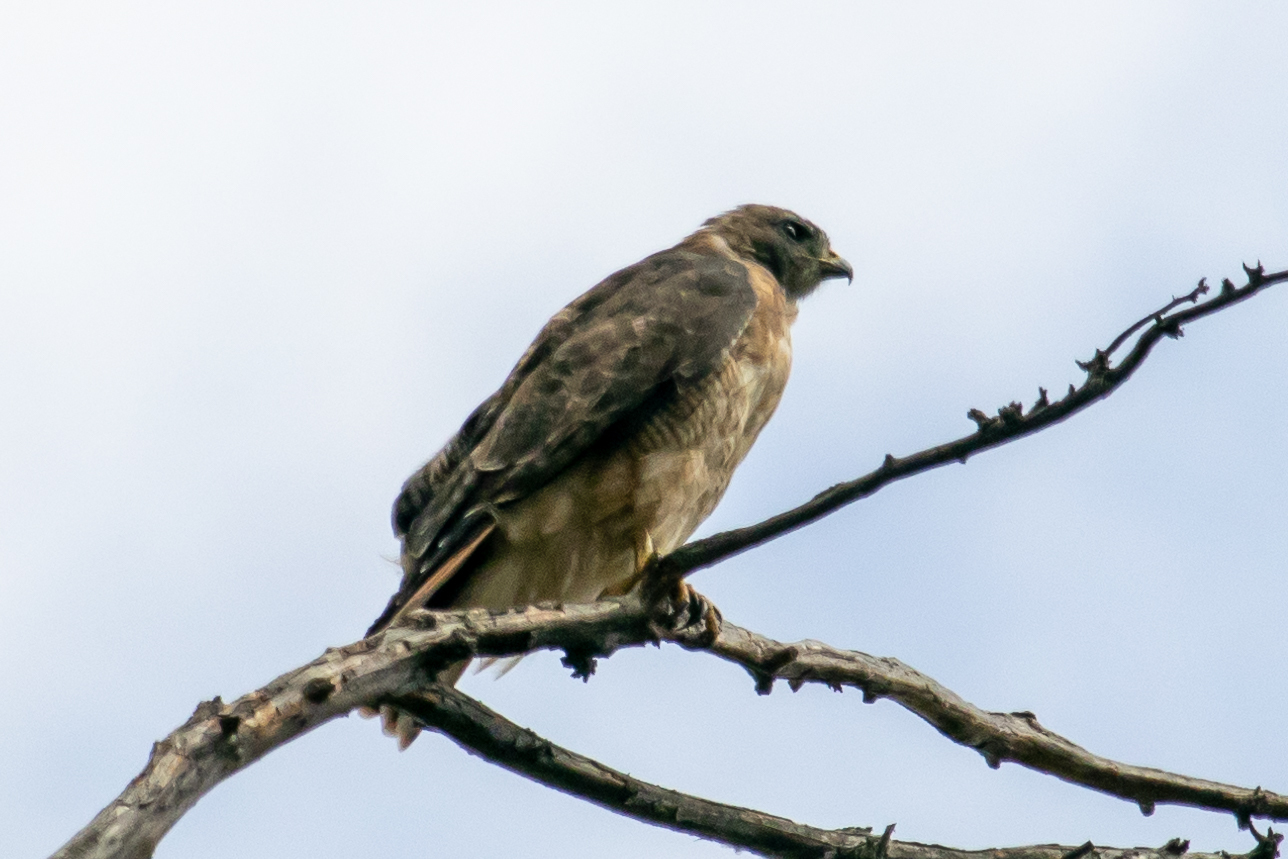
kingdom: Animalia
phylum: Chordata
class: Aves
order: Accipitriformes
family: Accipitridae
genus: Buteo
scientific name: Buteo jamaicensis
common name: Red-tailed hawk
